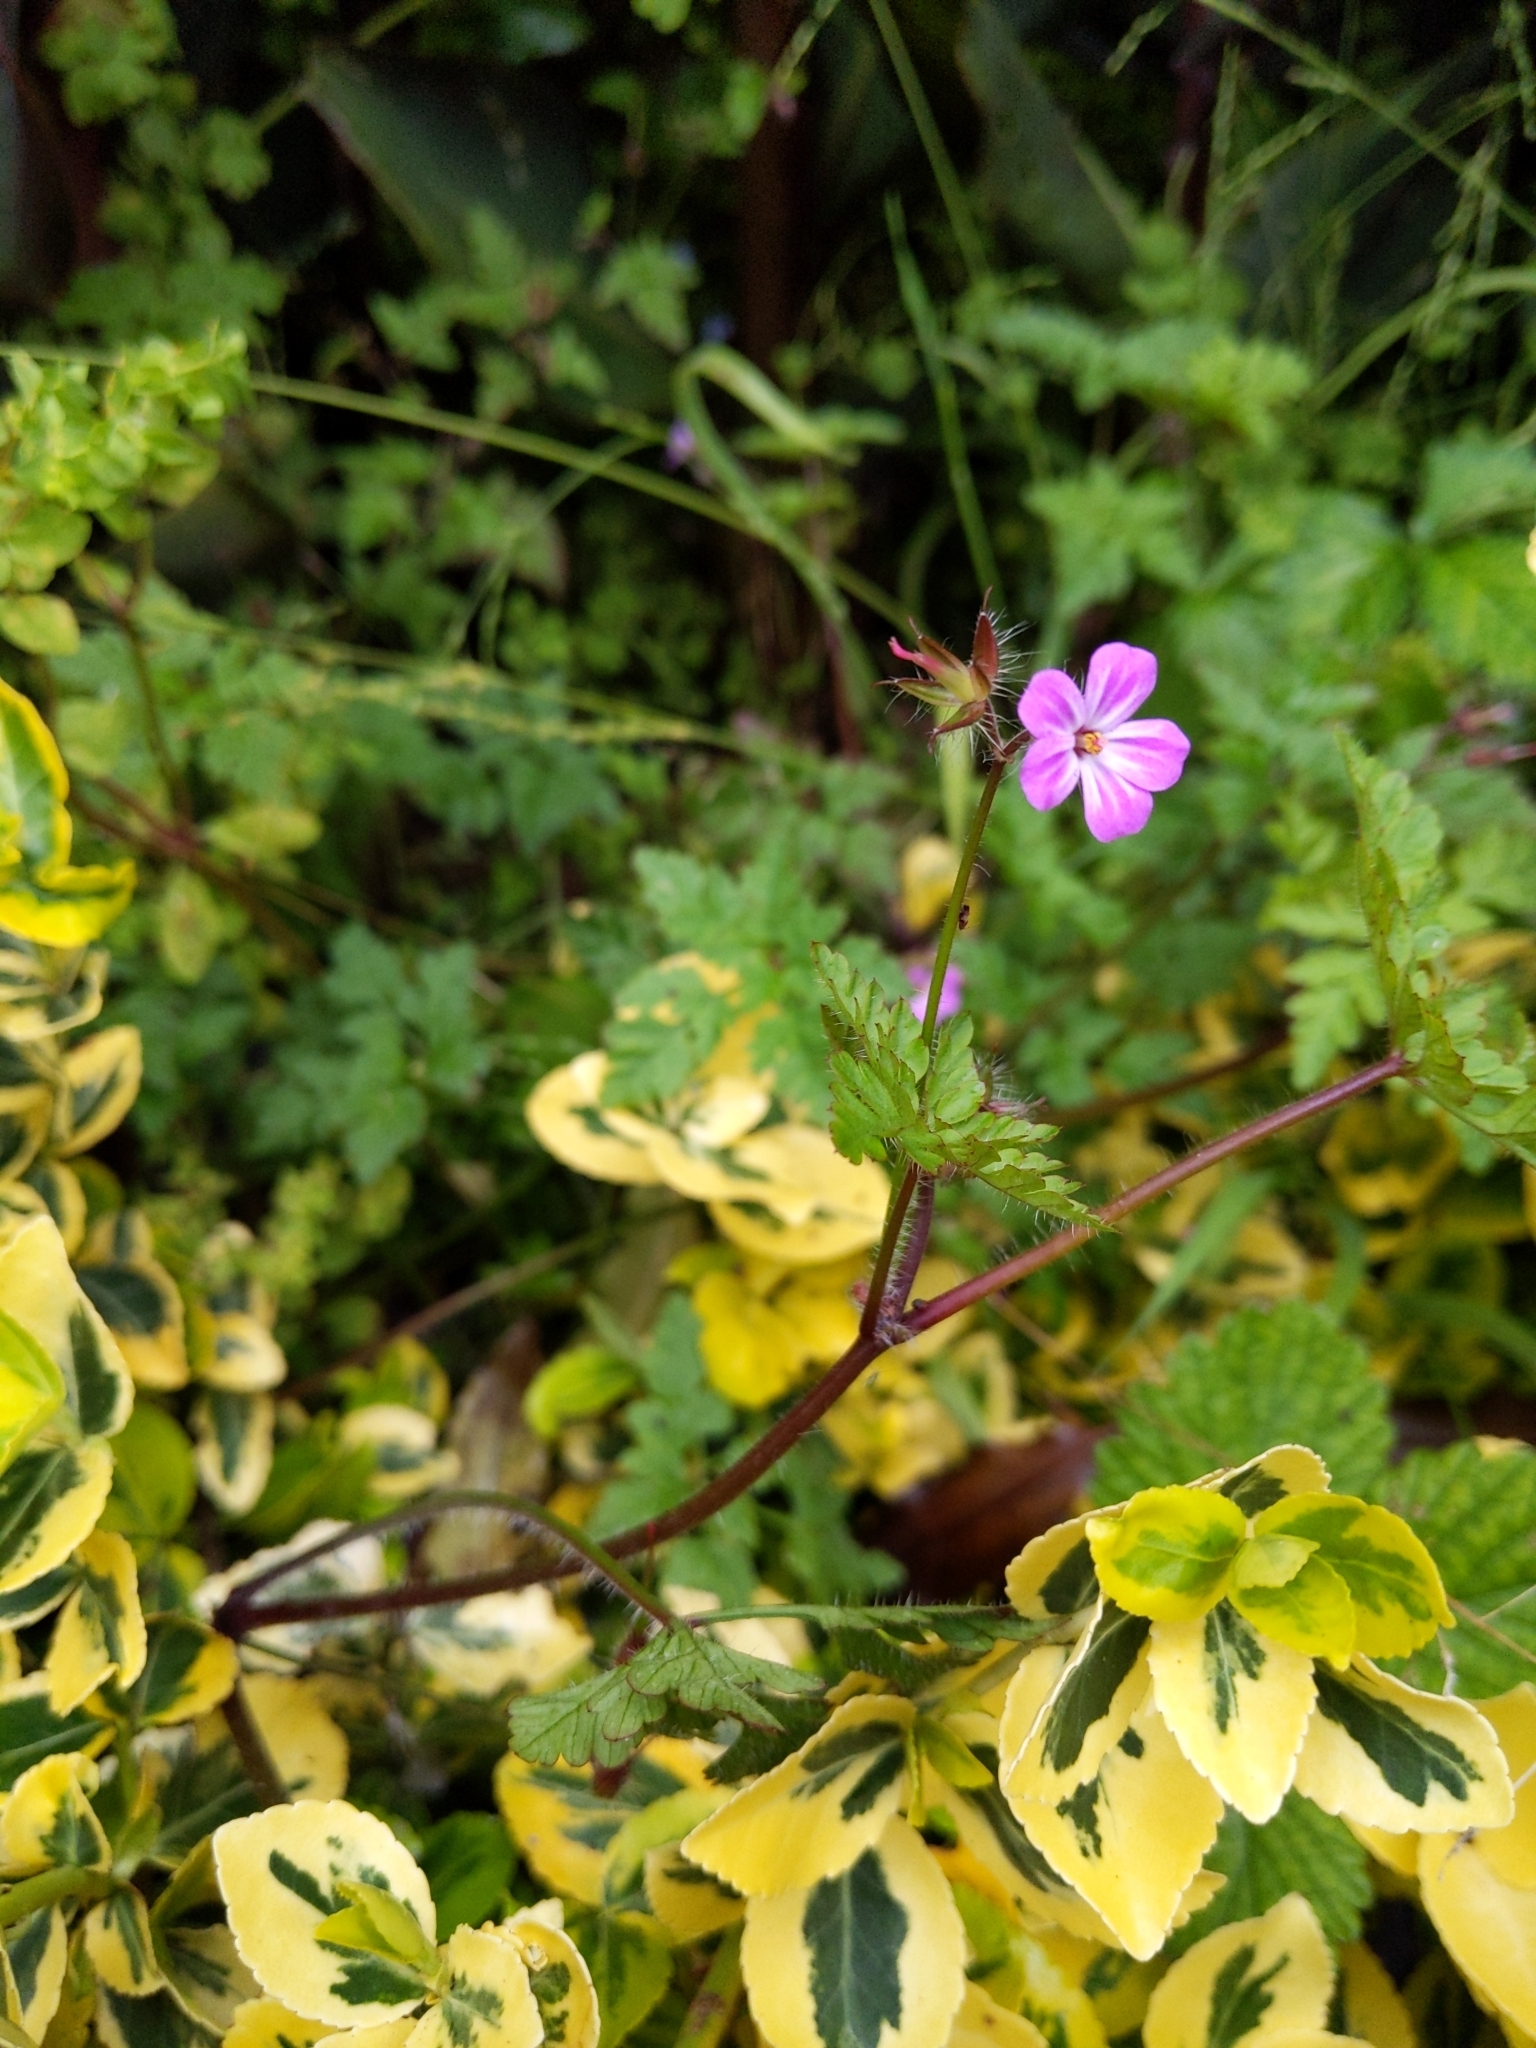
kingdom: Plantae
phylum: Tracheophyta
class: Magnoliopsida
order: Geraniales
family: Geraniaceae
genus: Geranium
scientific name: Geranium robertianum
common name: Herb-robert
